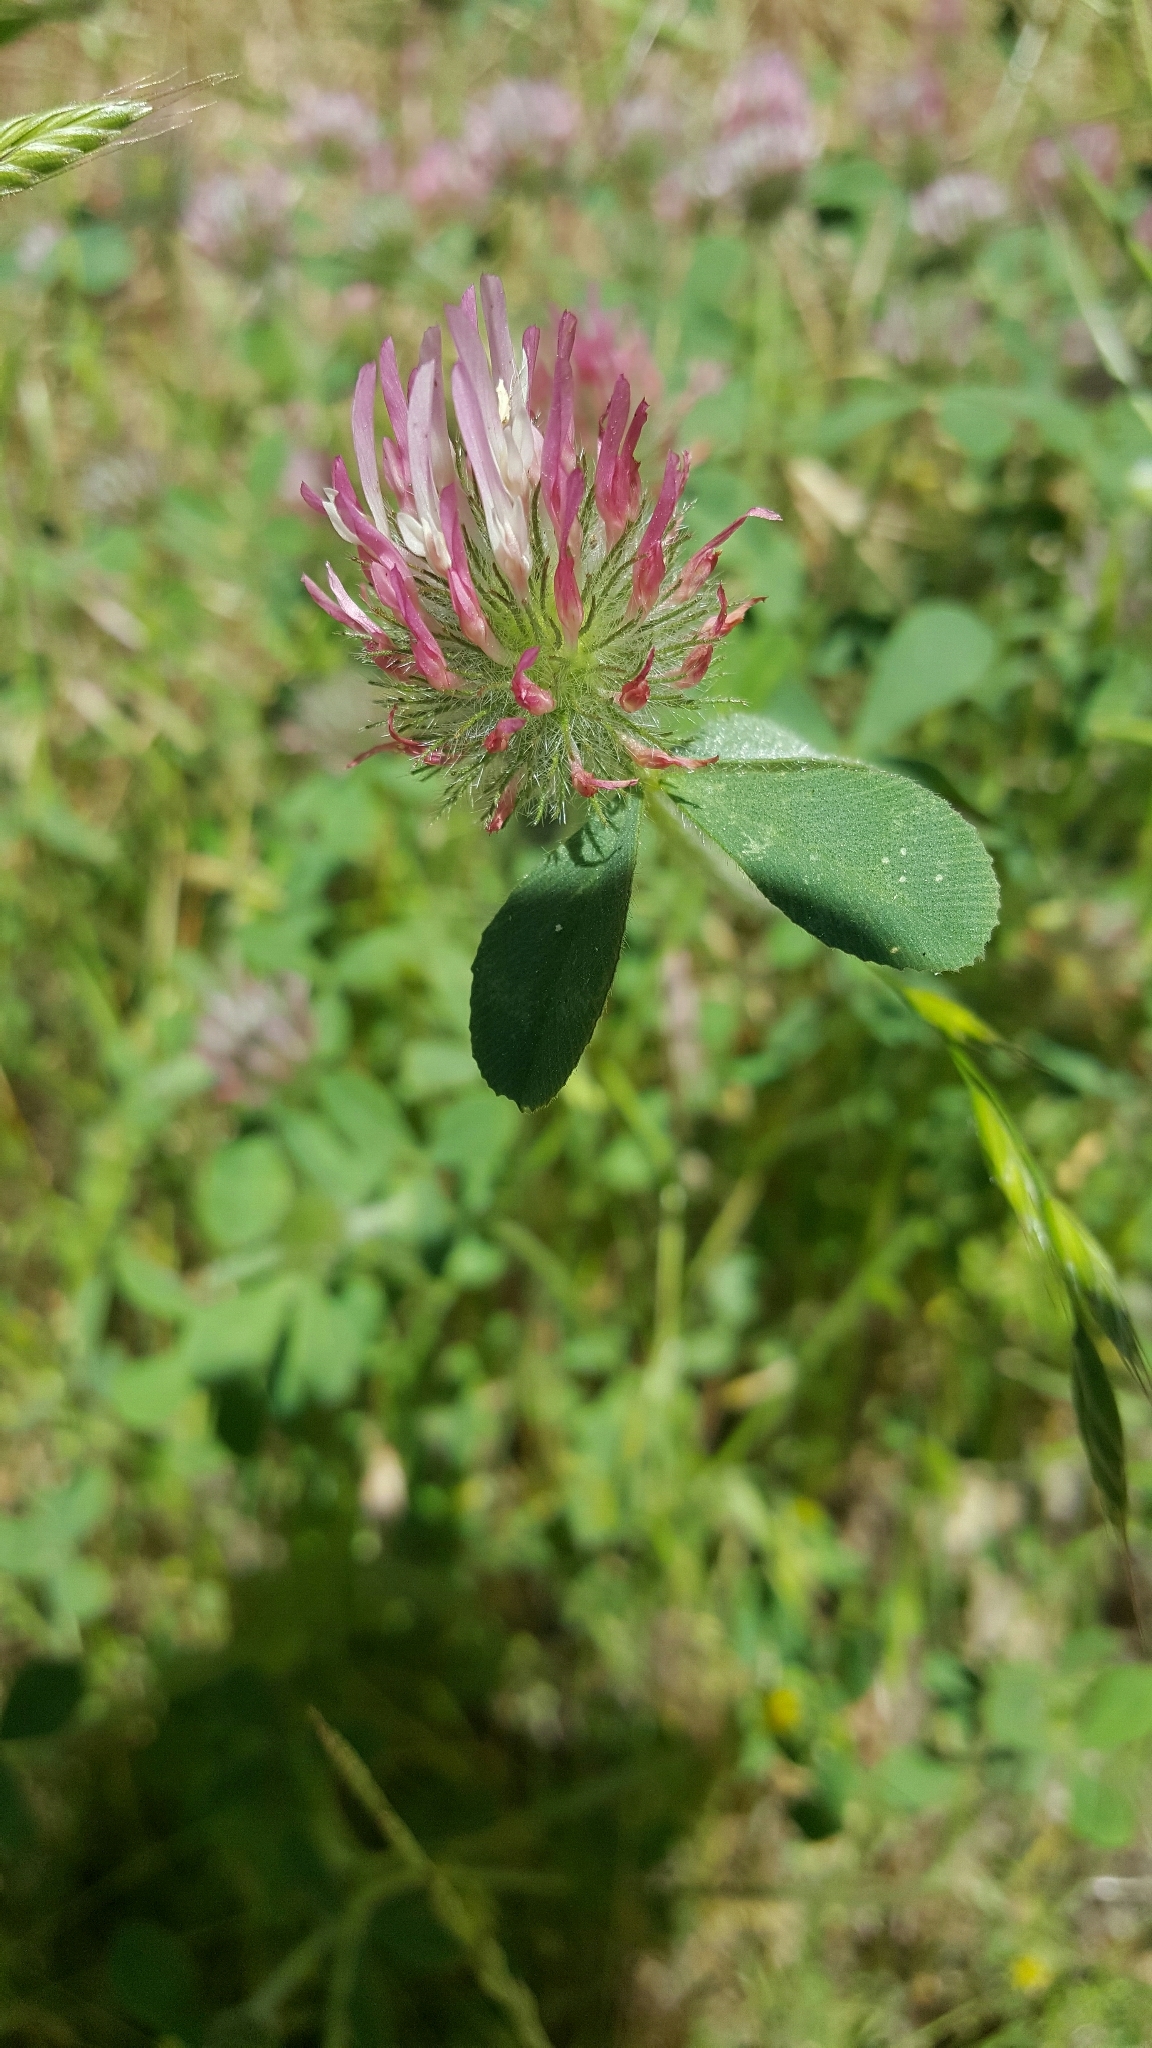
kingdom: Plantae
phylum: Tracheophyta
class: Magnoliopsida
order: Fabales
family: Fabaceae
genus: Trifolium
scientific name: Trifolium hirtum
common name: Rose clover
